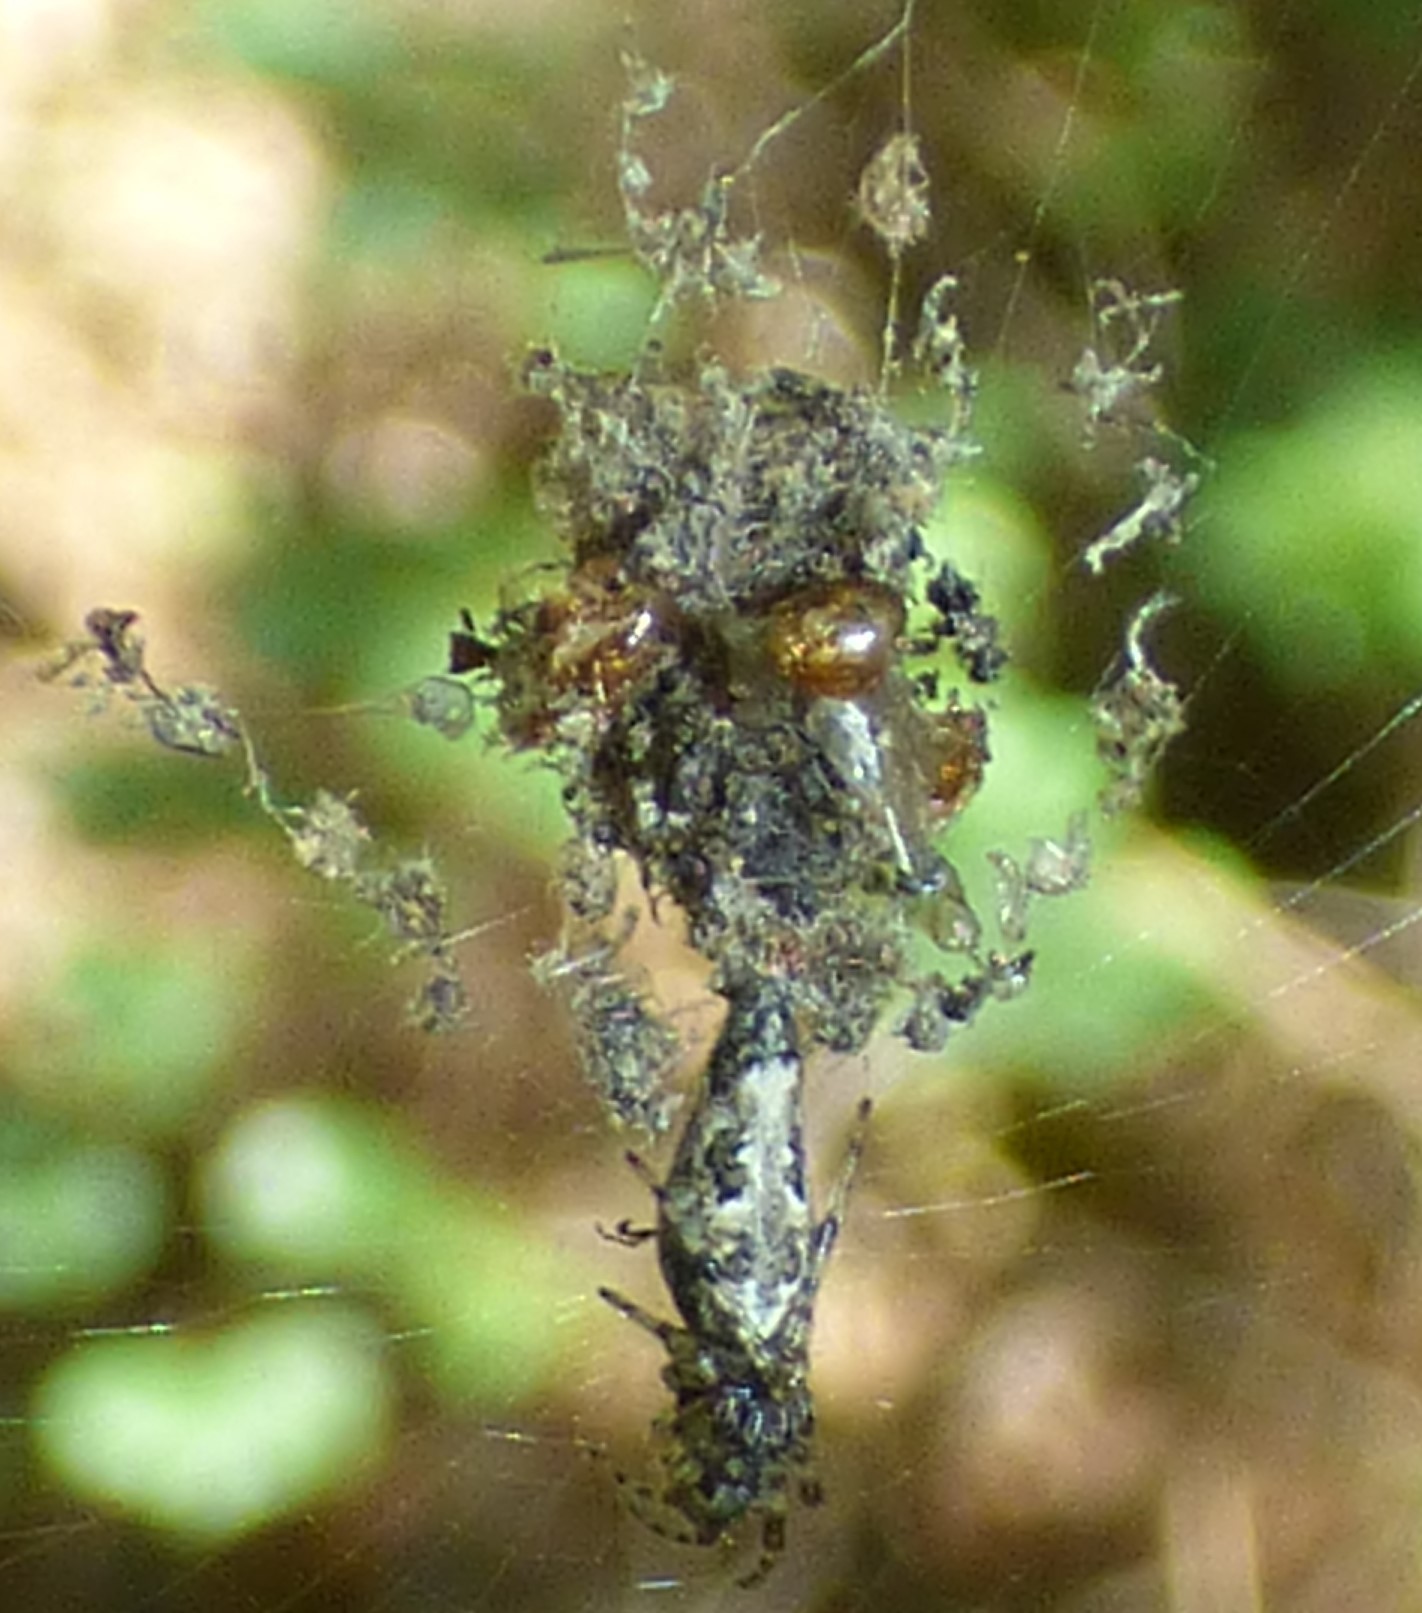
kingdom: Animalia
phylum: Arthropoda
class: Arachnida
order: Araneae
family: Araneidae
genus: Cyclosa
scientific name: Cyclosa caroli
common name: Orb weavers
